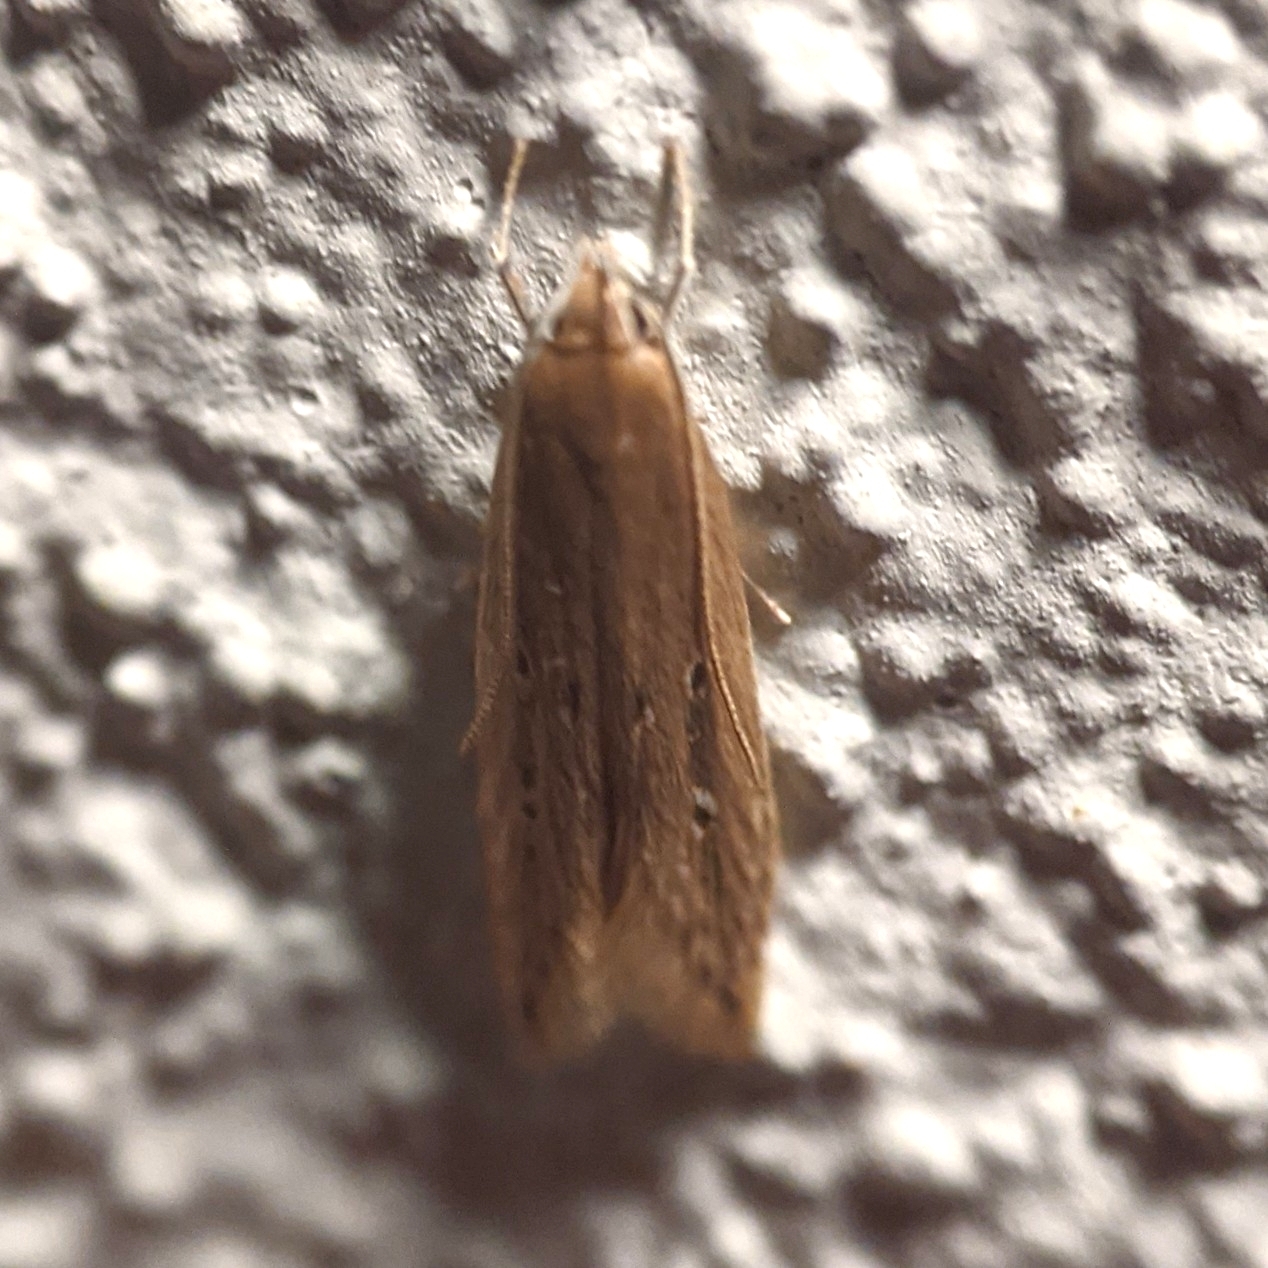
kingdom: Animalia
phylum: Arthropoda
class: Insecta
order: Lepidoptera
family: Cosmopterigidae
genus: Limnaecia
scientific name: Limnaecia phragmitella
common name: Bulrush cosmet
